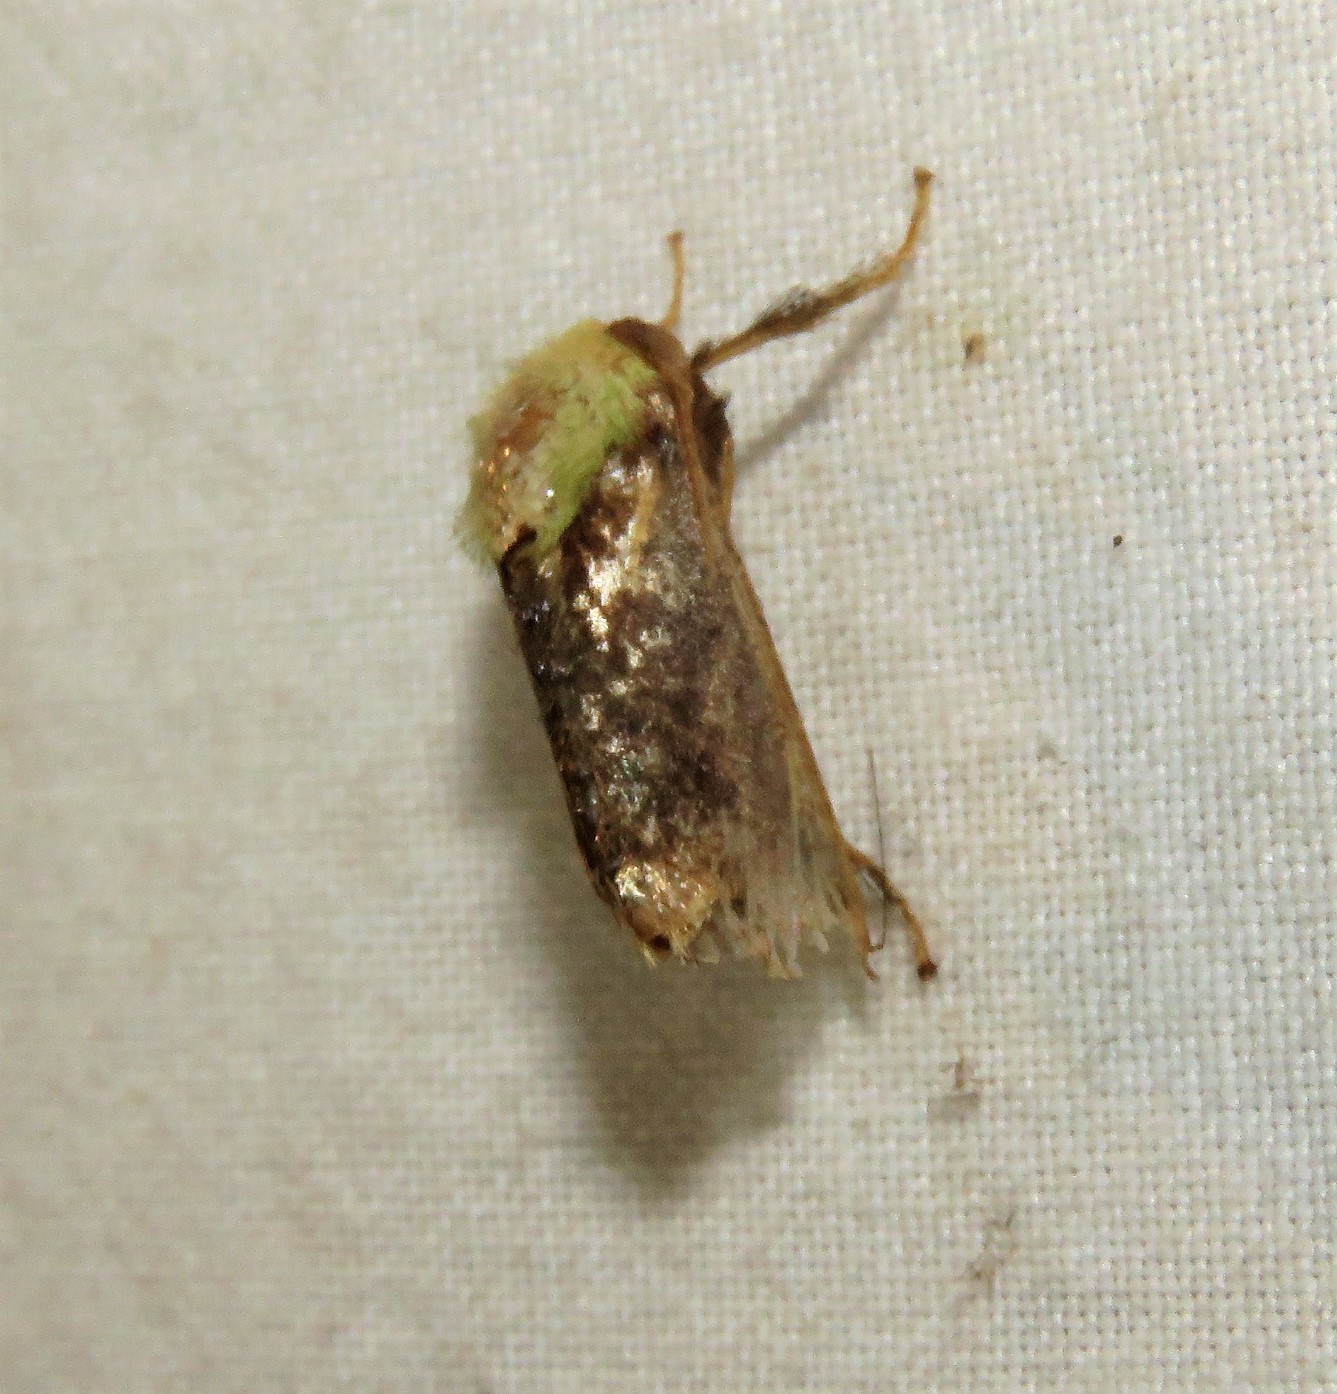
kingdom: Animalia
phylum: Arthropoda
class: Insecta
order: Lepidoptera
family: Limacodidae
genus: Parasa
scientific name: Parasa viridogrisea
